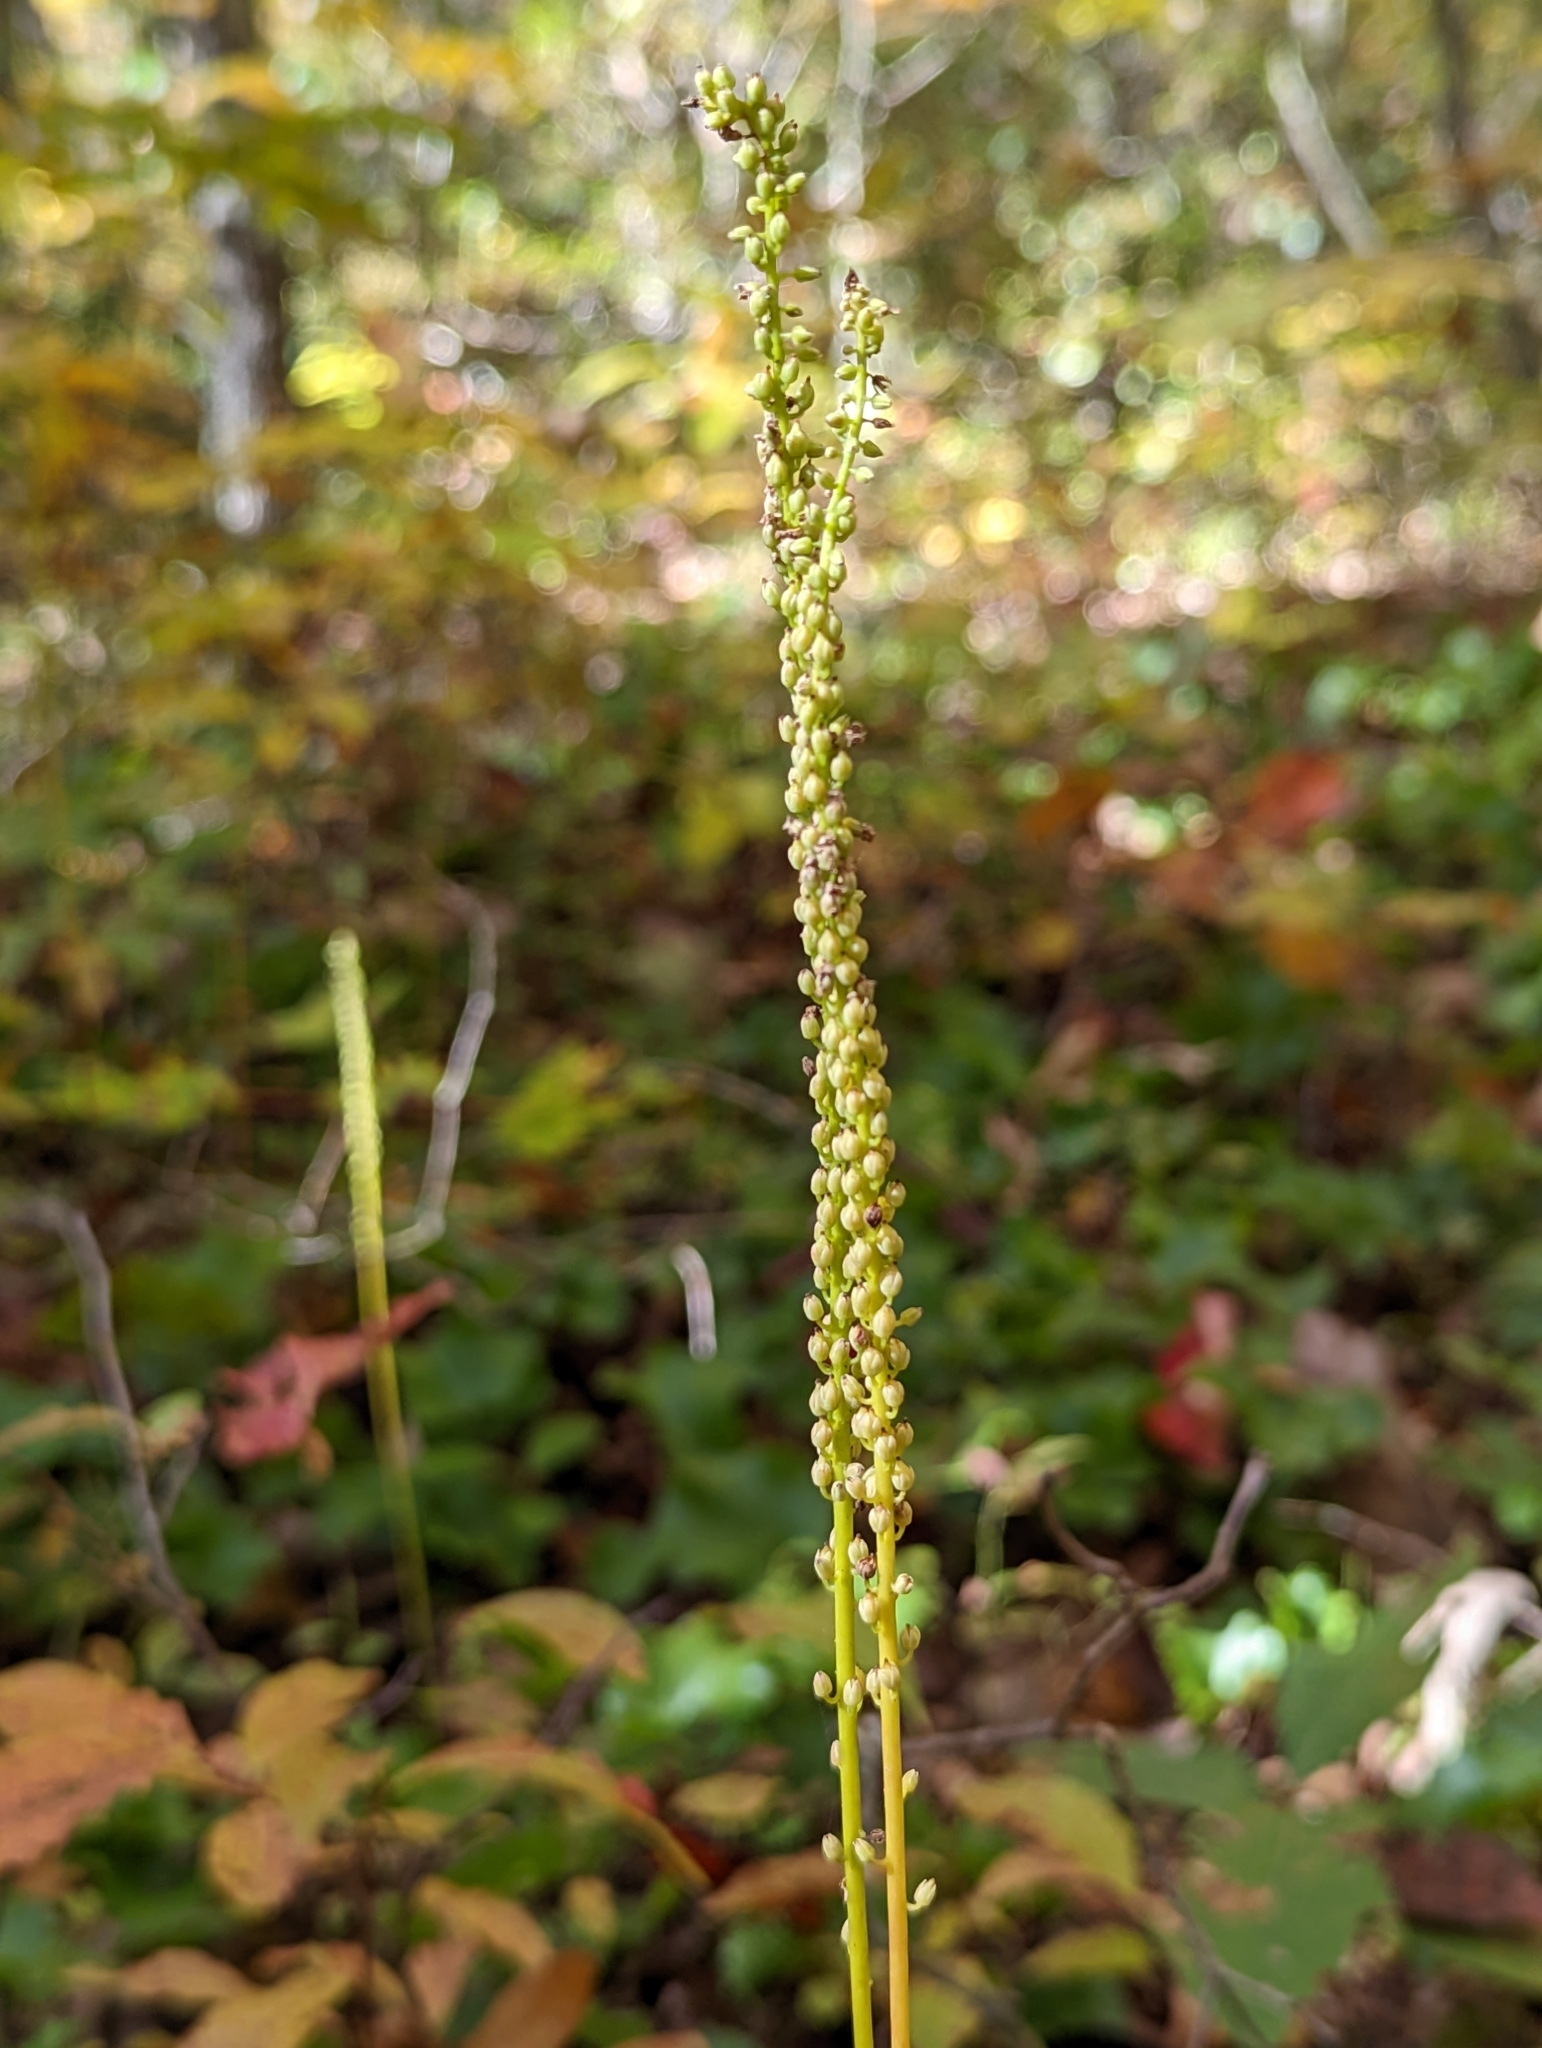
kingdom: Plantae
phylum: Tracheophyta
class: Magnoliopsida
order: Ericales
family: Diapensiaceae
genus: Galax
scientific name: Galax urceolata
